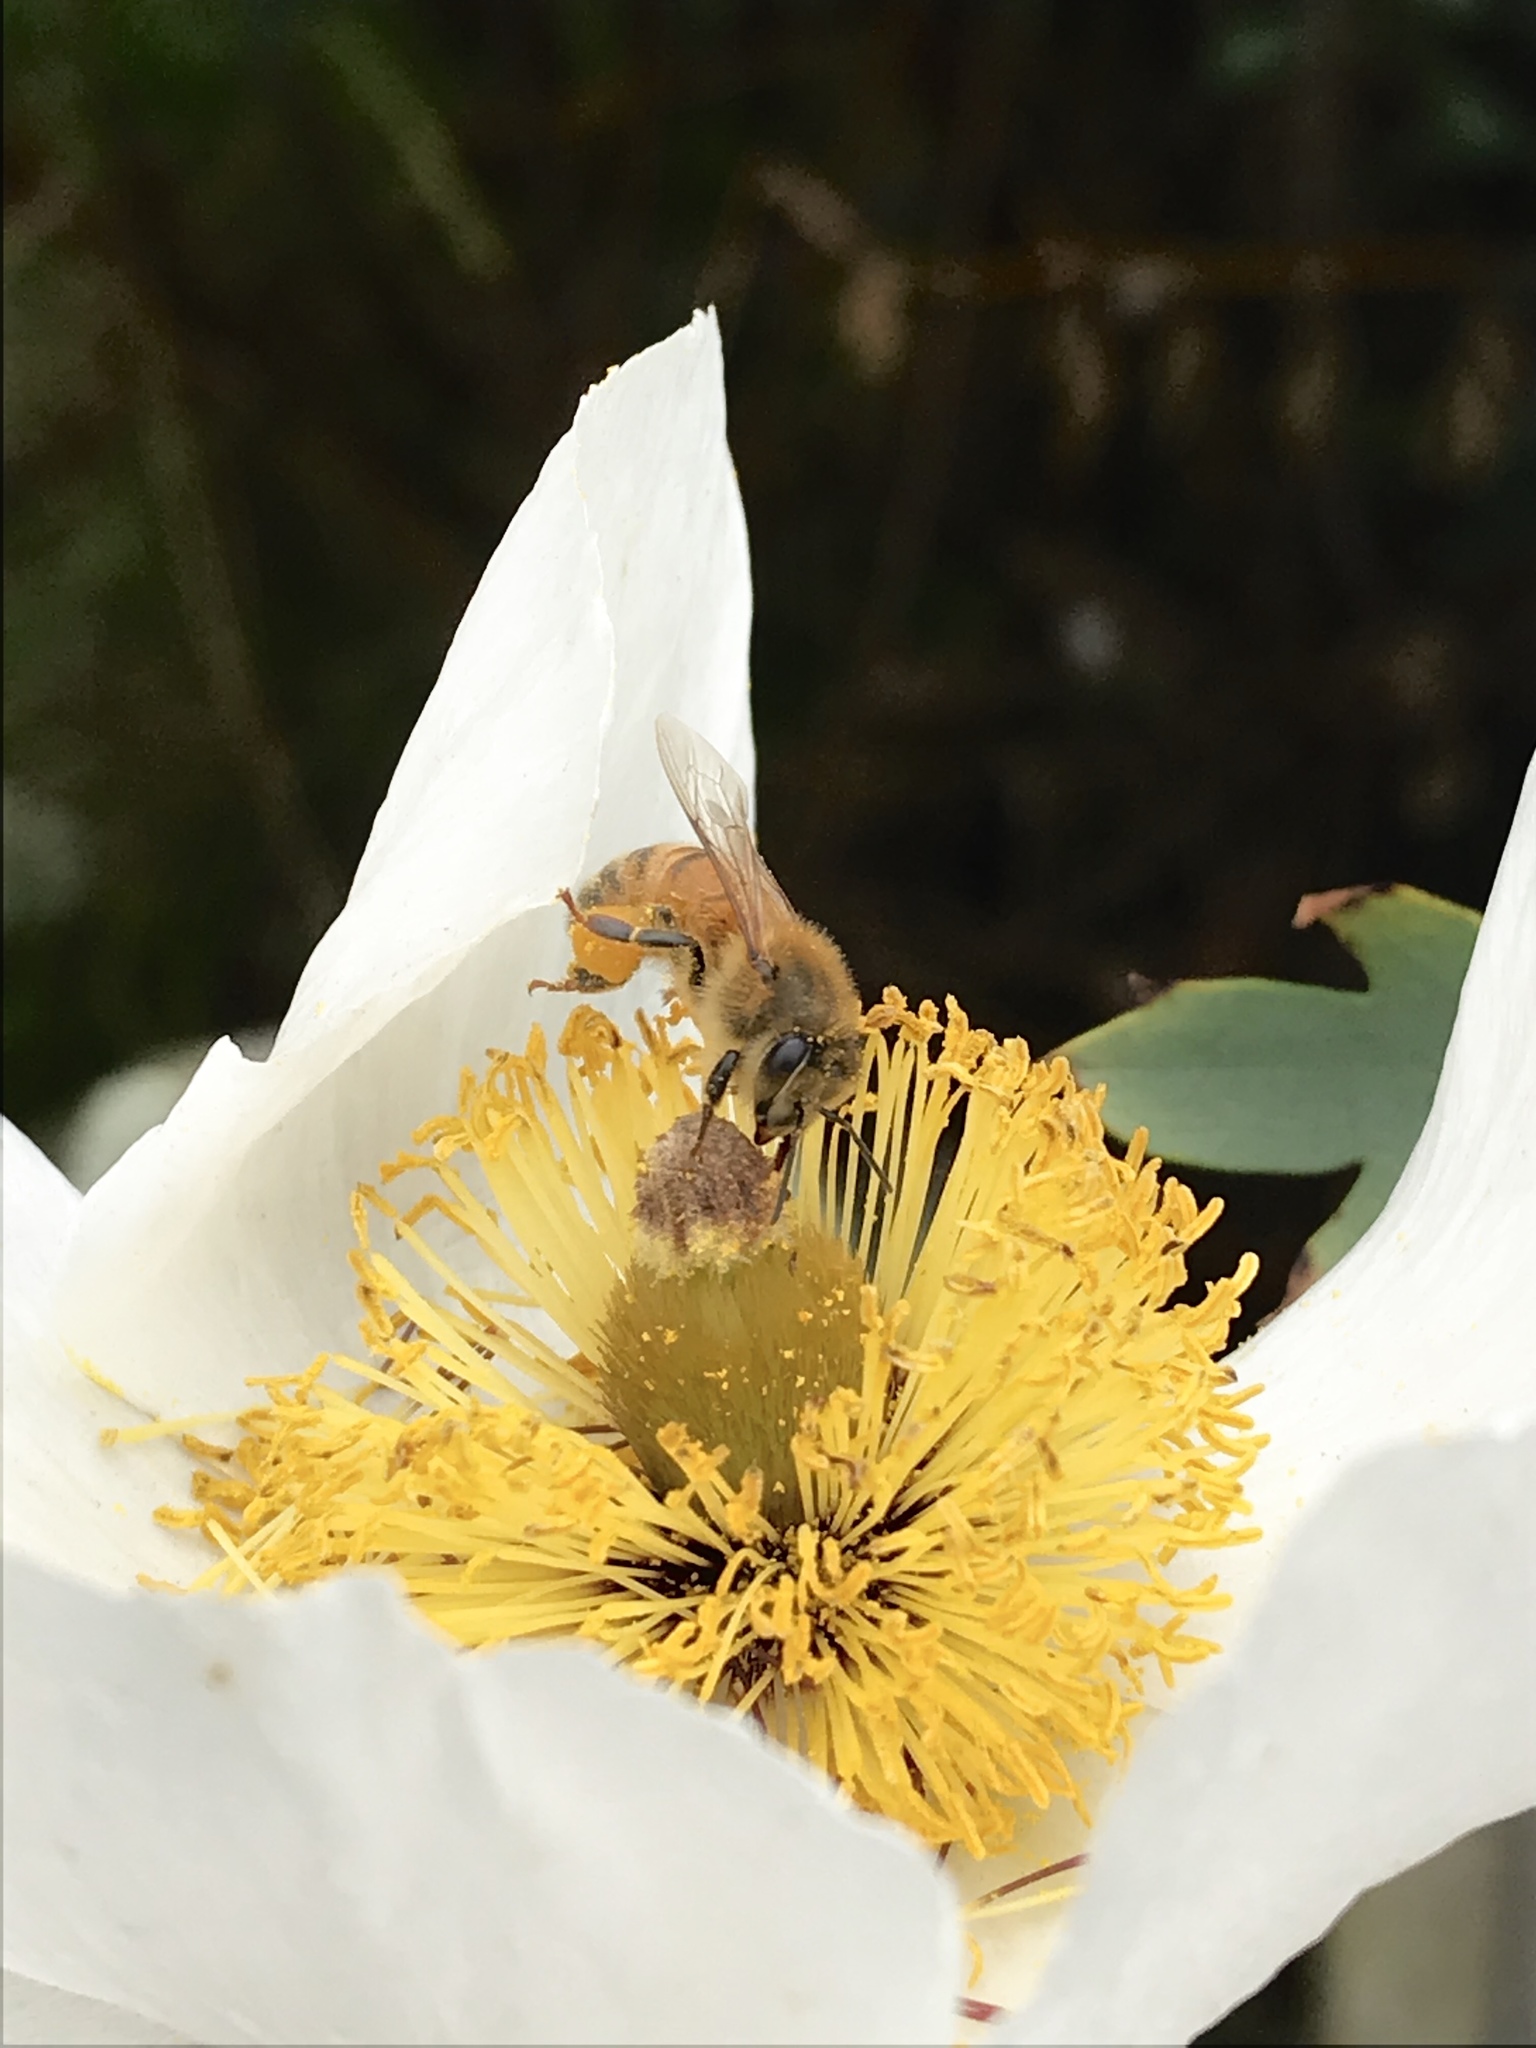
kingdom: Animalia
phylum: Arthropoda
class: Insecta
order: Hymenoptera
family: Apidae
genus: Apis
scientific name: Apis mellifera
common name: Honey bee
